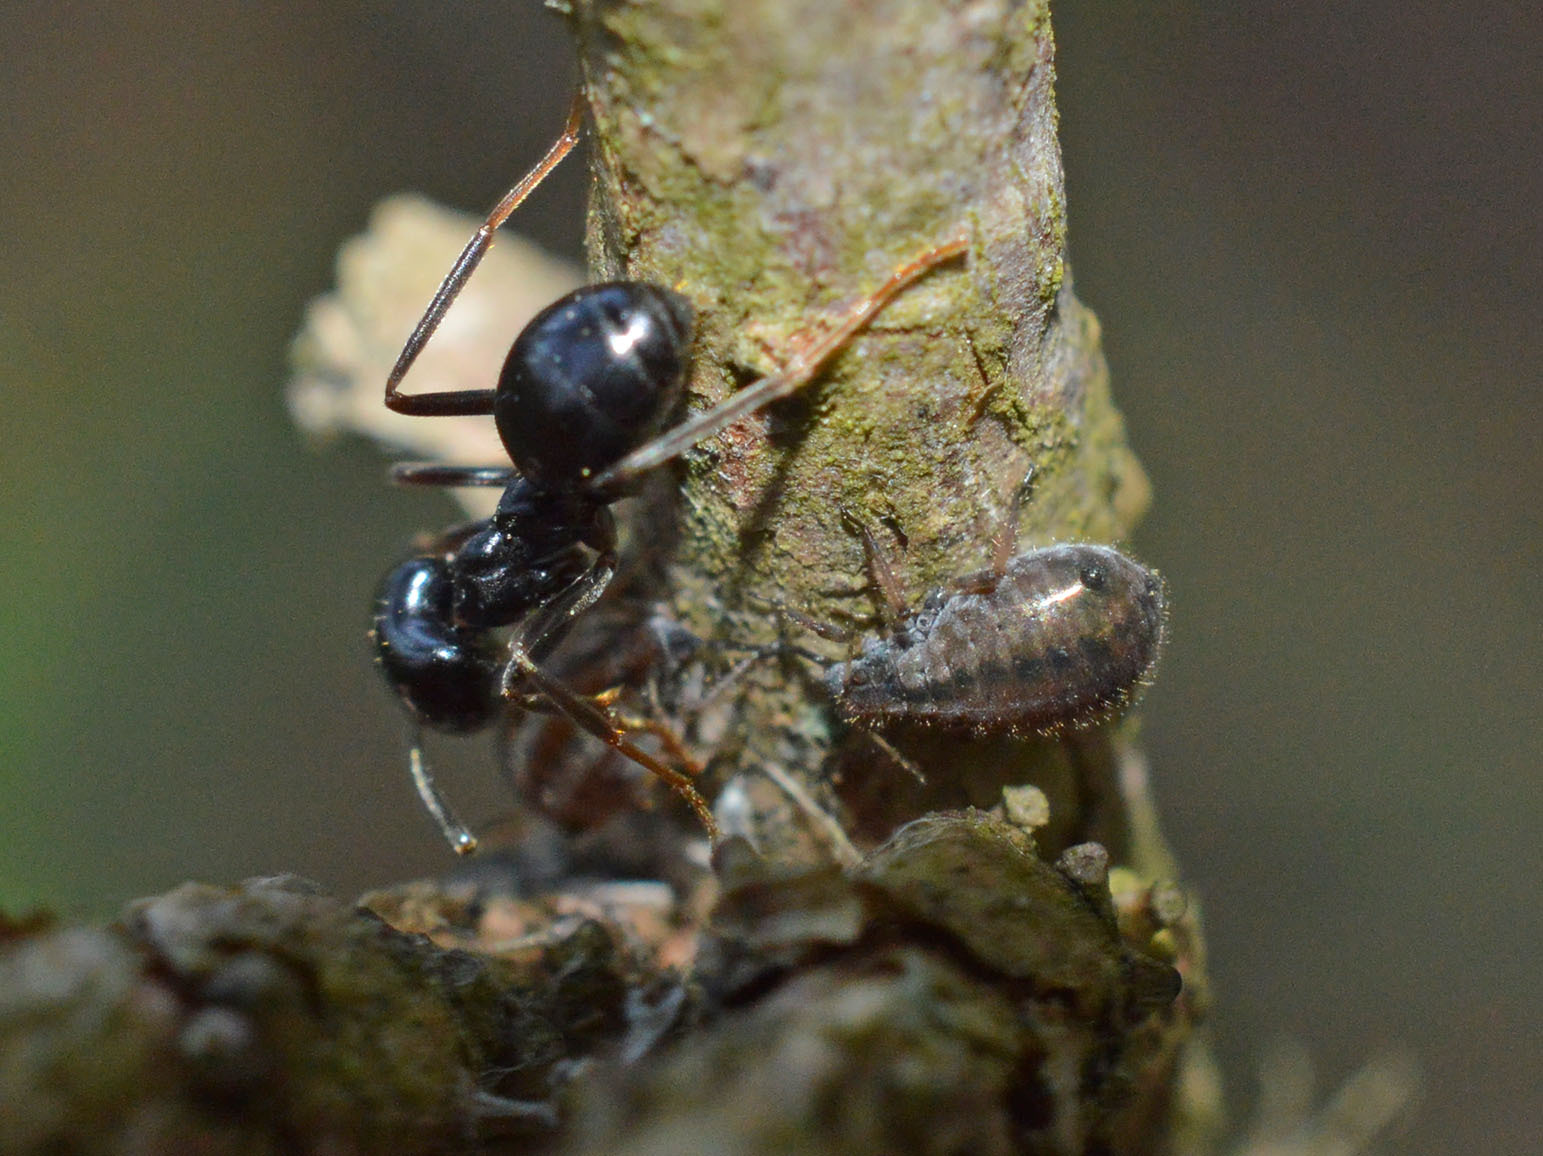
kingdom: Animalia
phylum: Arthropoda
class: Insecta
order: Hymenoptera
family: Formicidae
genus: Lasius
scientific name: Lasius fuliginosus
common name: Jet ant
